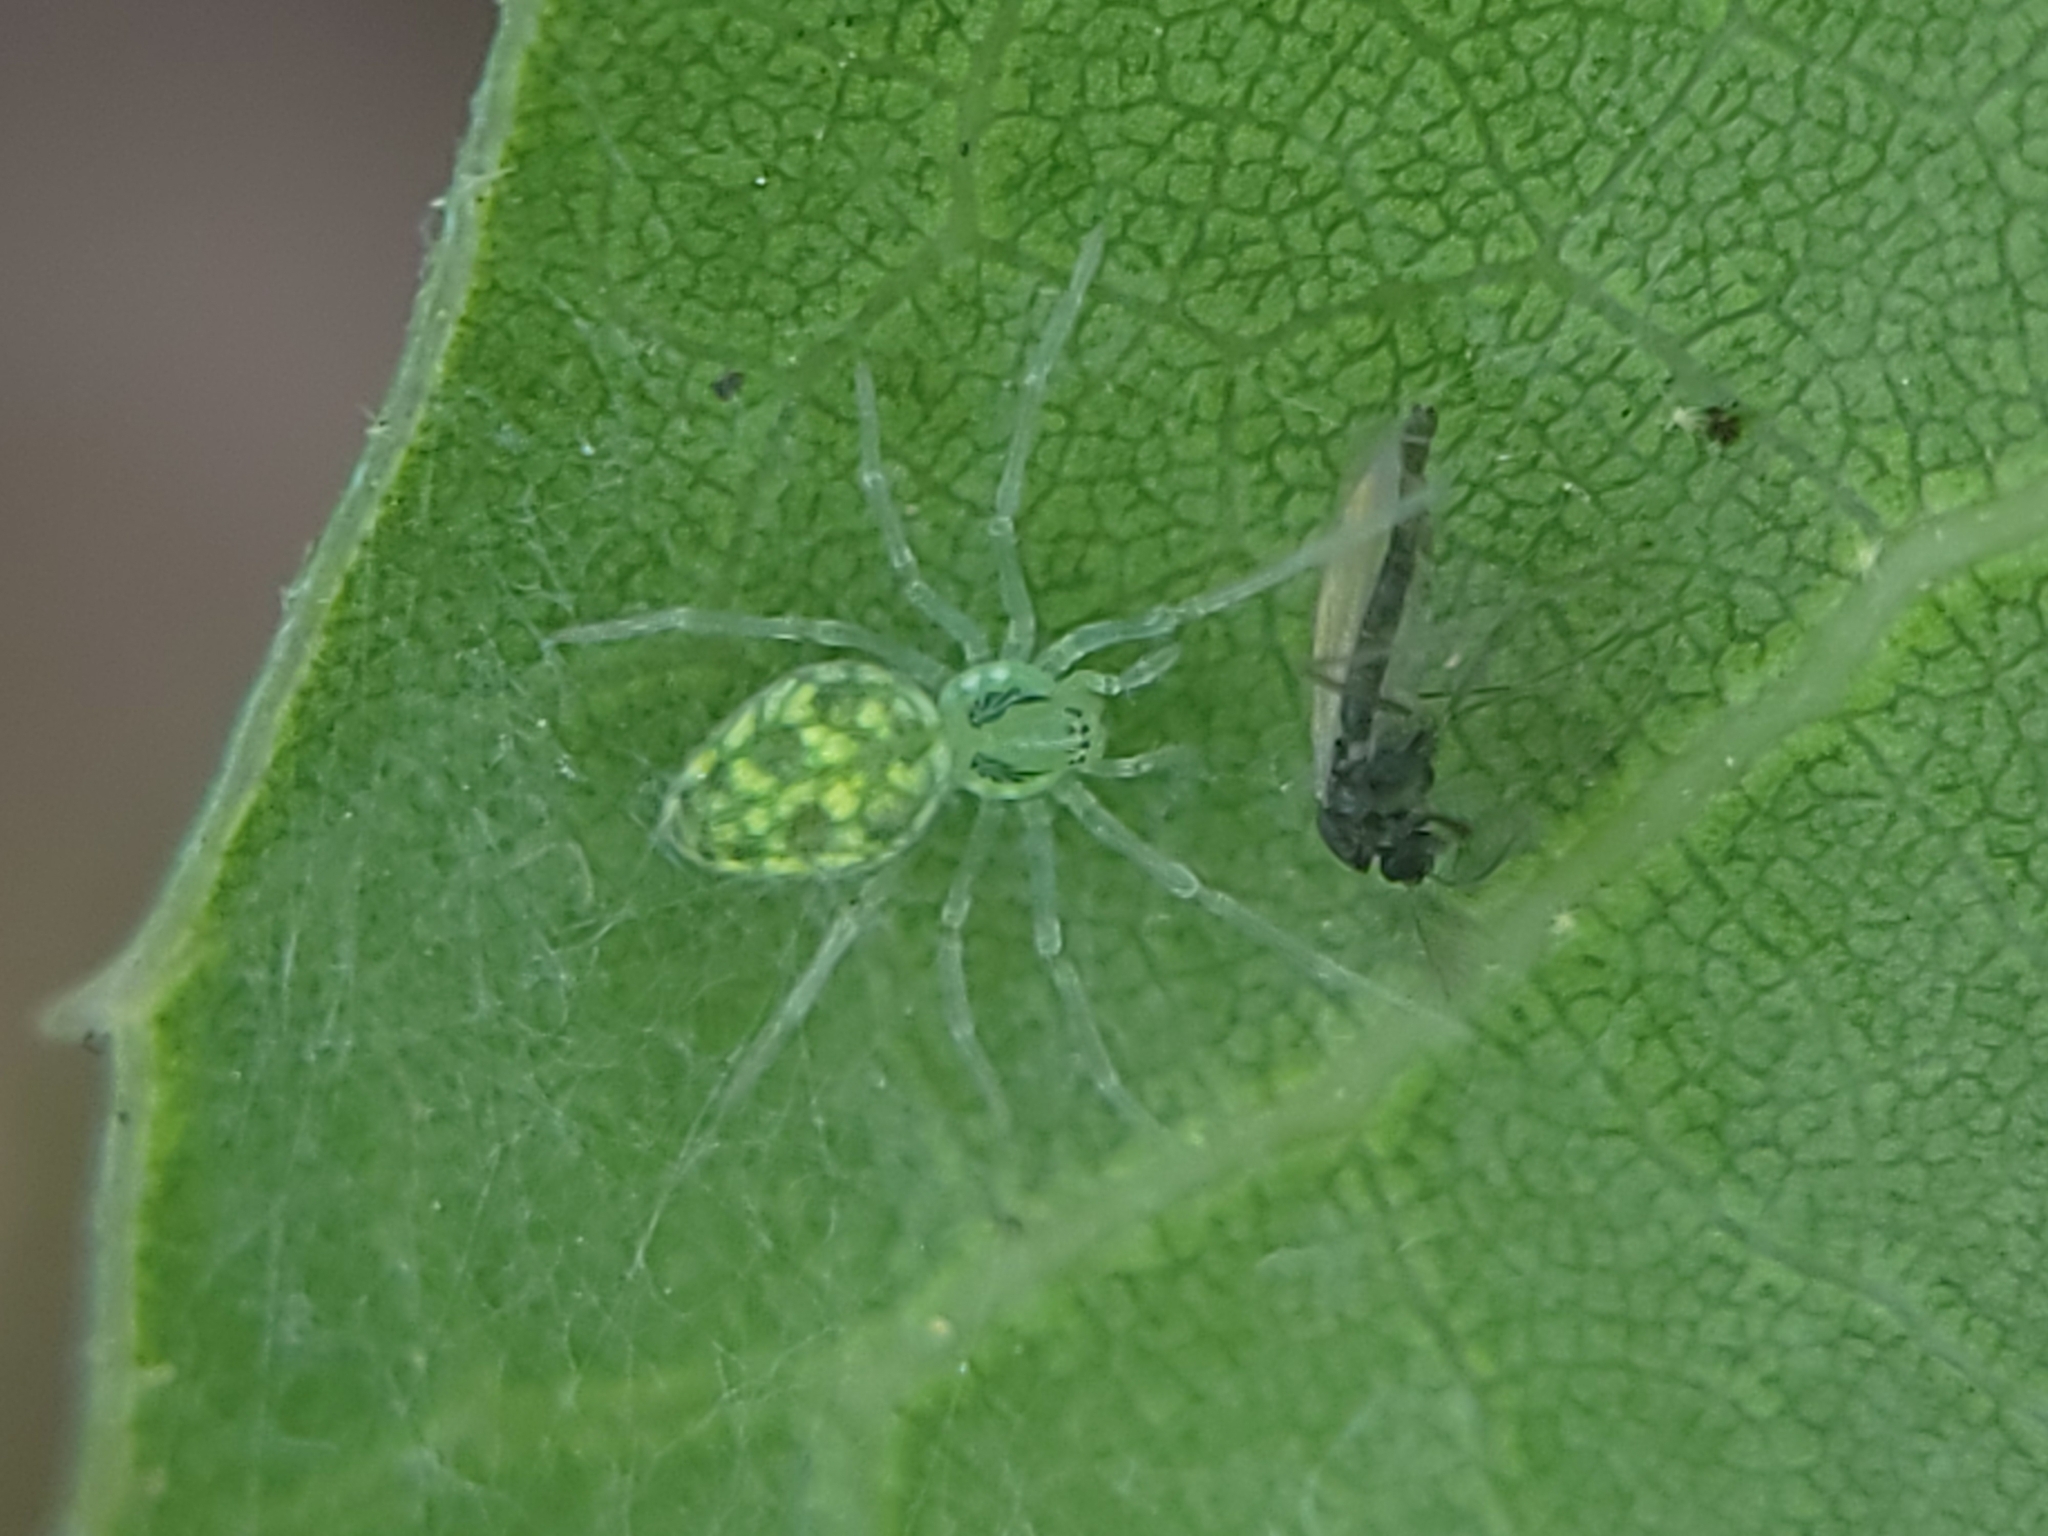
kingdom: Animalia
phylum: Arthropoda
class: Arachnida
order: Araneae
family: Dictynidae
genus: Nigma
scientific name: Nigma linsdalei
